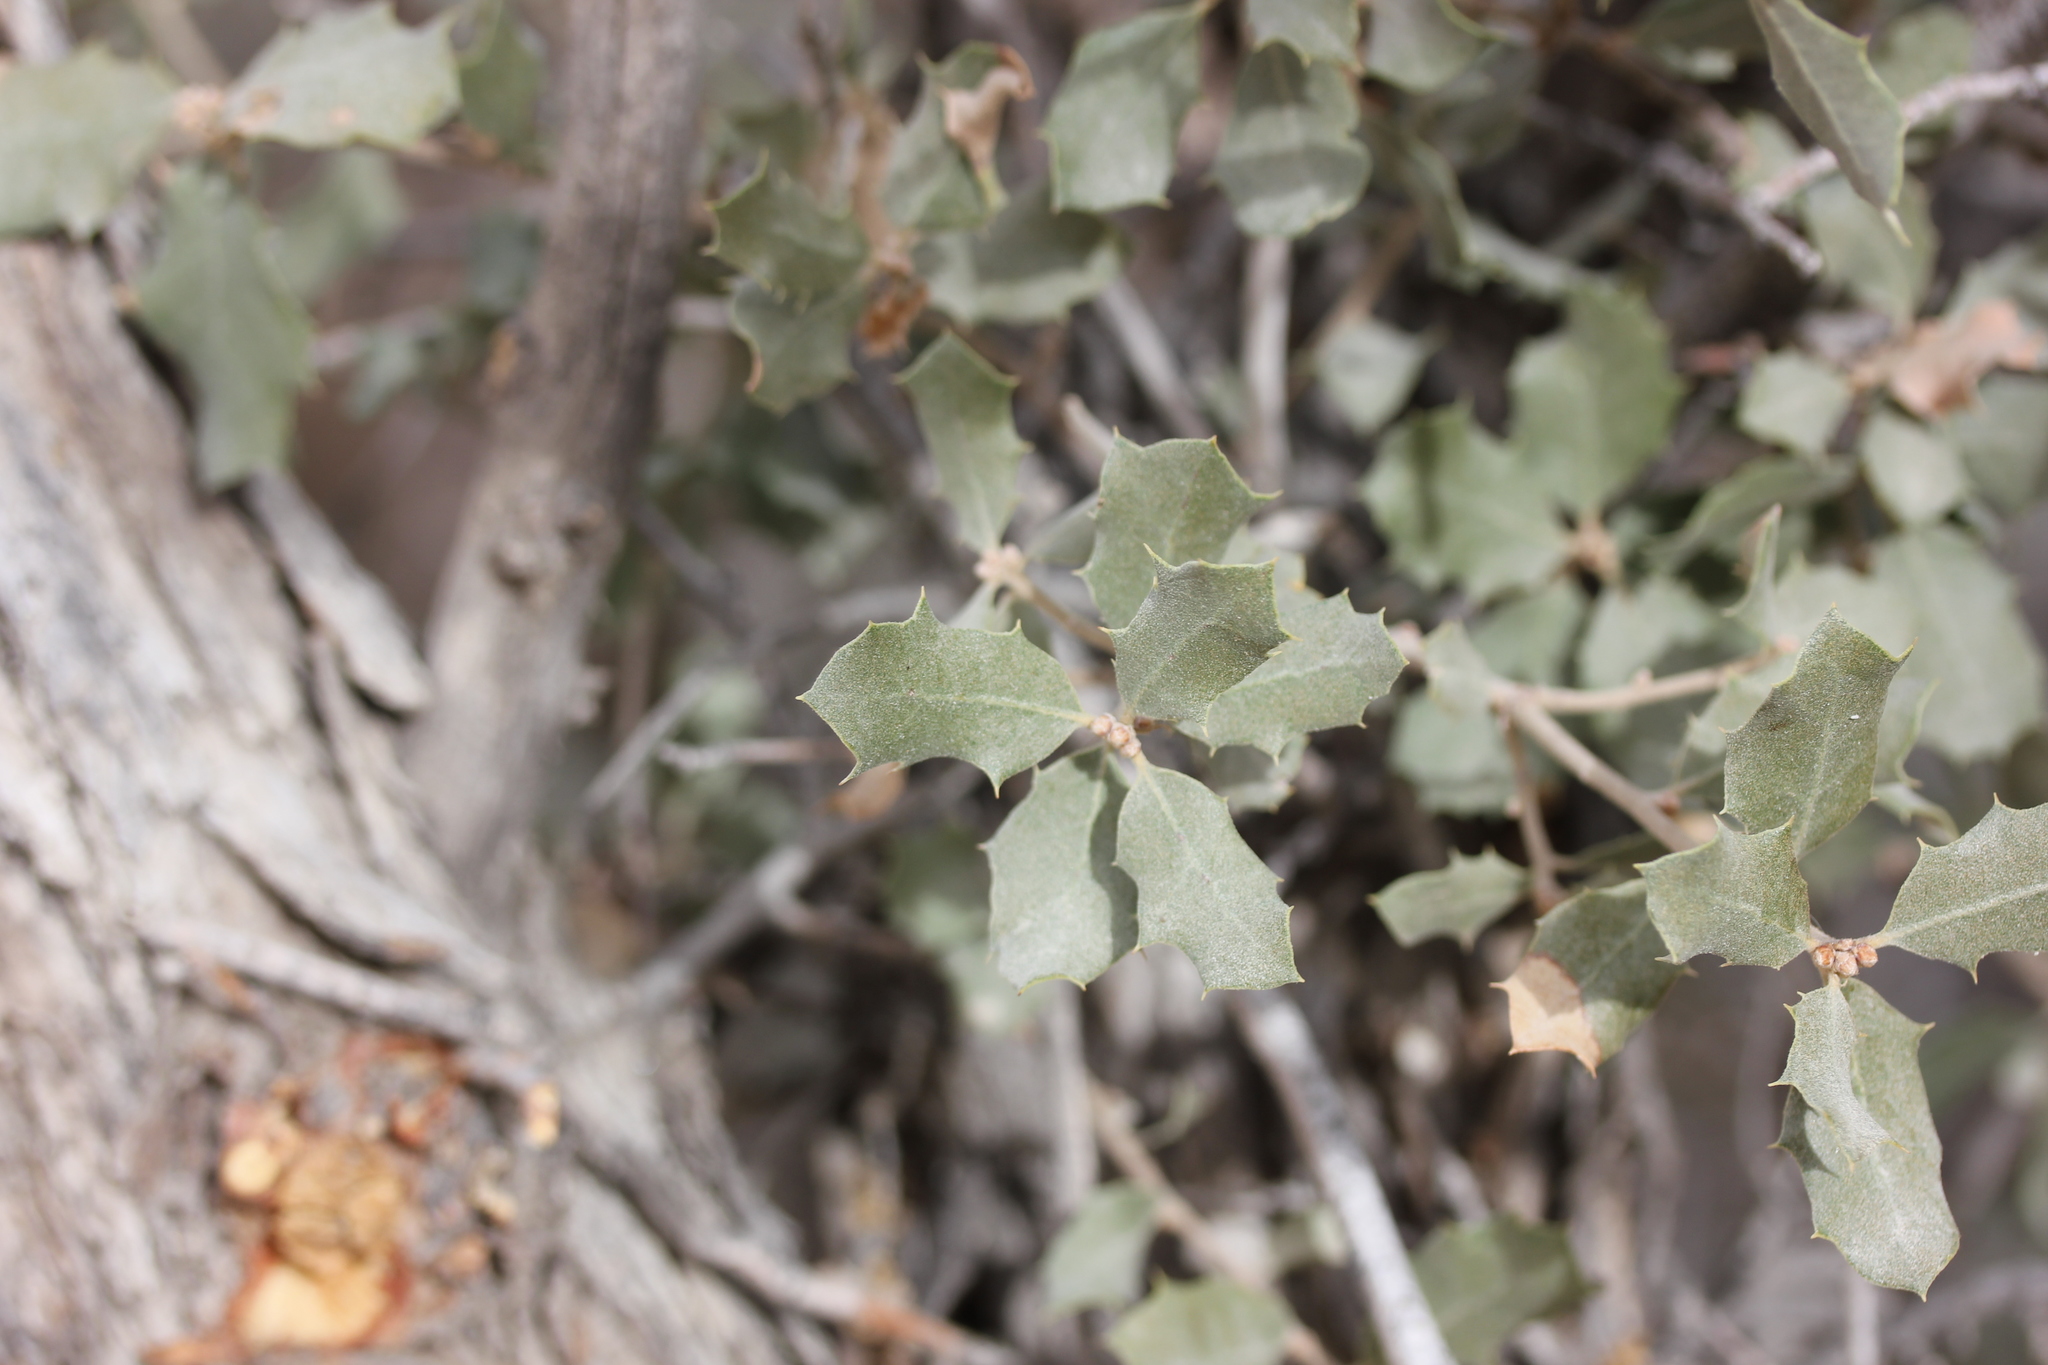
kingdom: Plantae
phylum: Tracheophyta
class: Magnoliopsida
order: Fagales
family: Fagaceae
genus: Quercus
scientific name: Quercus cornelius-mulleri
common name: Muller oak
